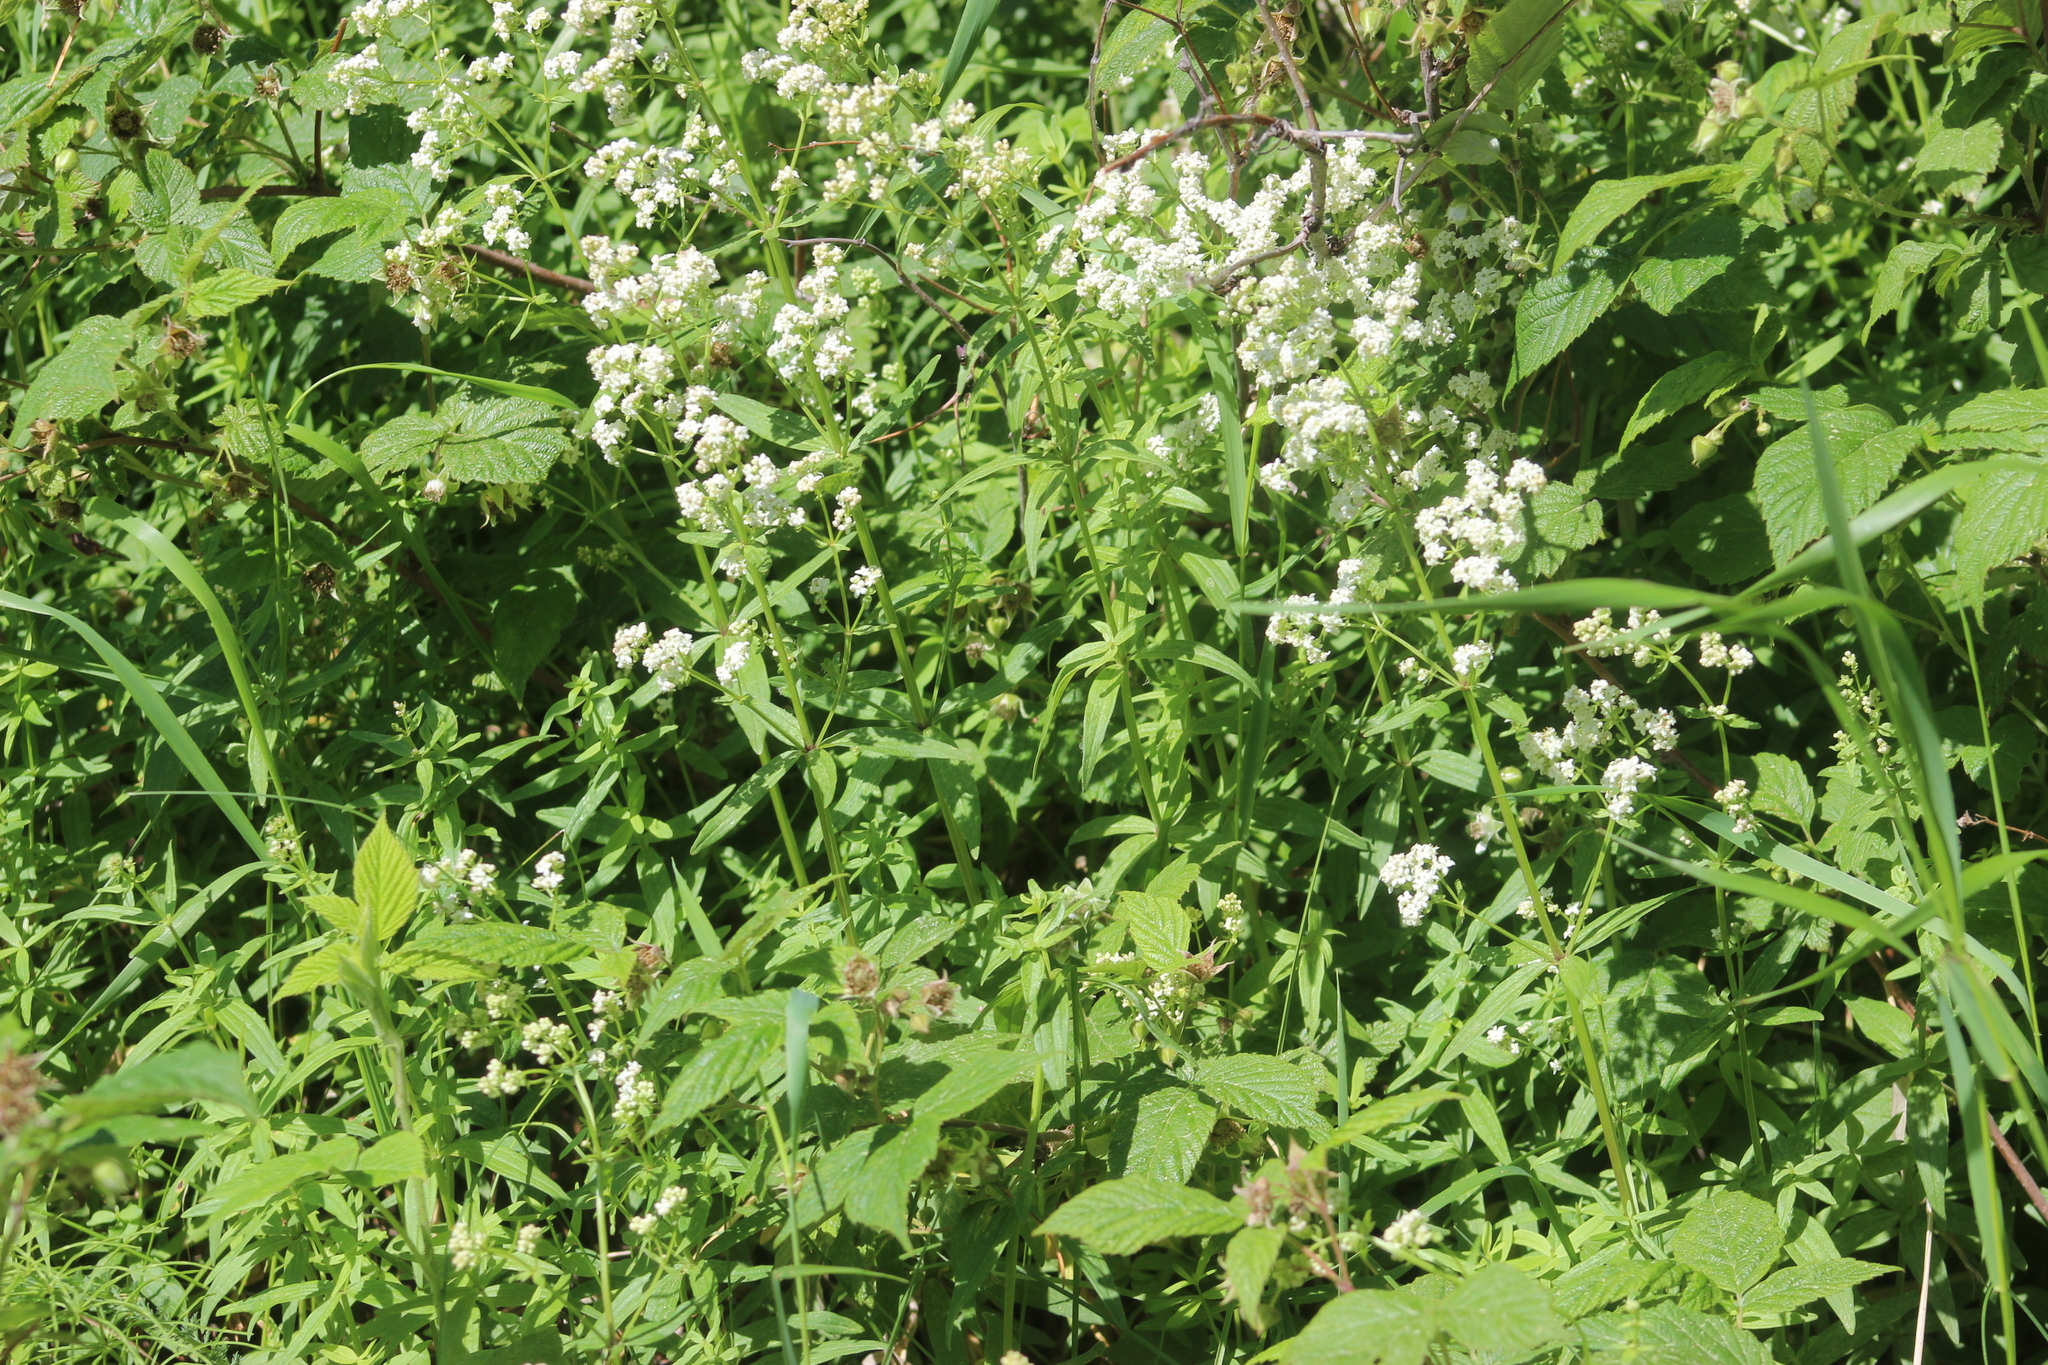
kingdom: Plantae
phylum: Tracheophyta
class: Magnoliopsida
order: Gentianales
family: Rubiaceae
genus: Galium
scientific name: Galium boreale
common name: Northern bedstraw
